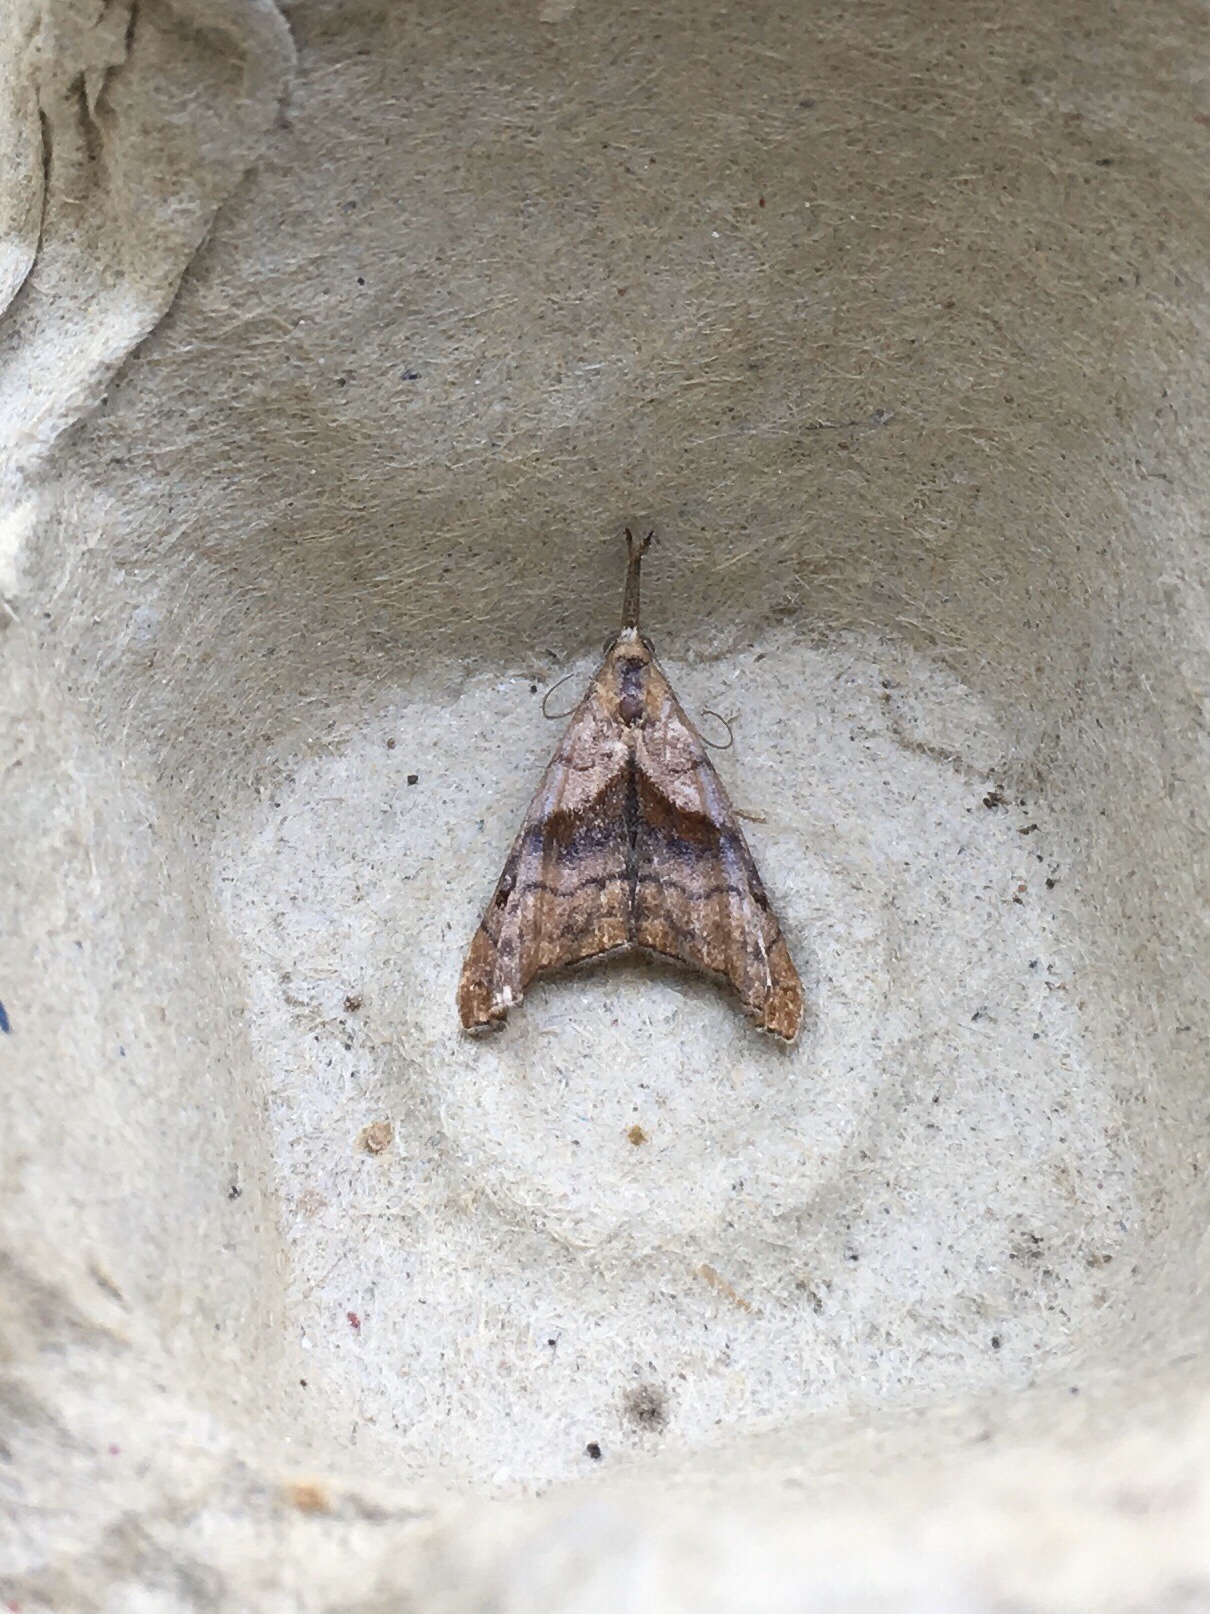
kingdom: Animalia
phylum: Arthropoda
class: Insecta
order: Lepidoptera
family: Erebidae
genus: Palthis
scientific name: Palthis angulalis
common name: Dark-spotted palthis moth
